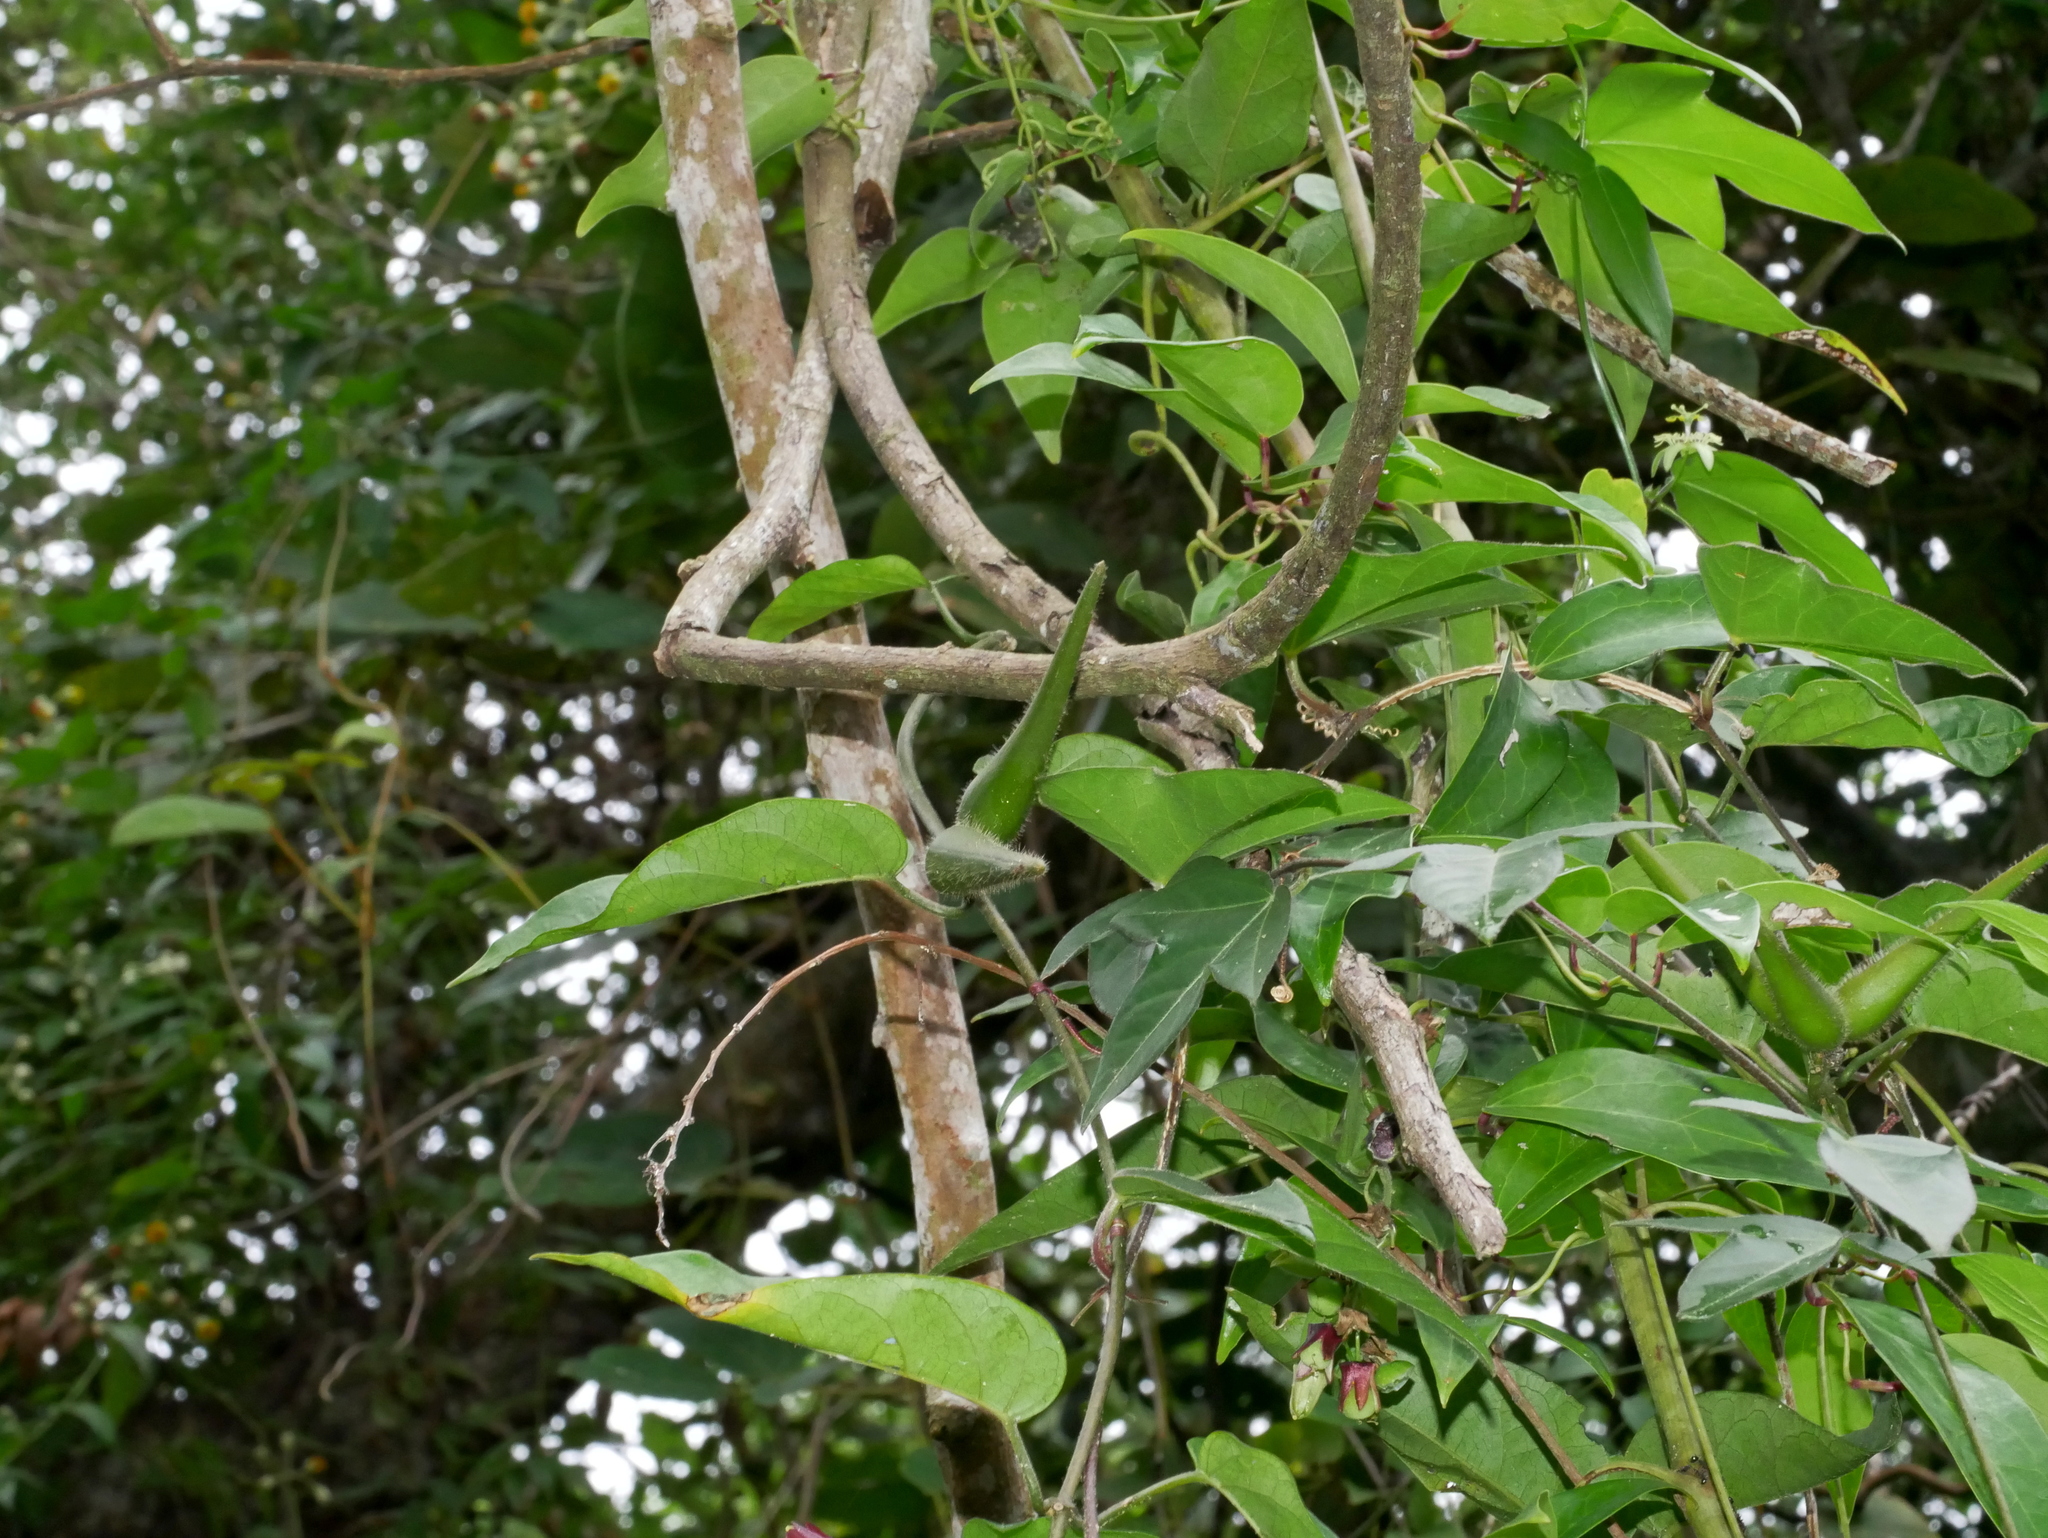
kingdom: Plantae
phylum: Tracheophyta
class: Magnoliopsida
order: Gentianales
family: Apocynaceae
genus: Marsdenia
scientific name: Marsdenia tinctoria
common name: Climbing-indigo
